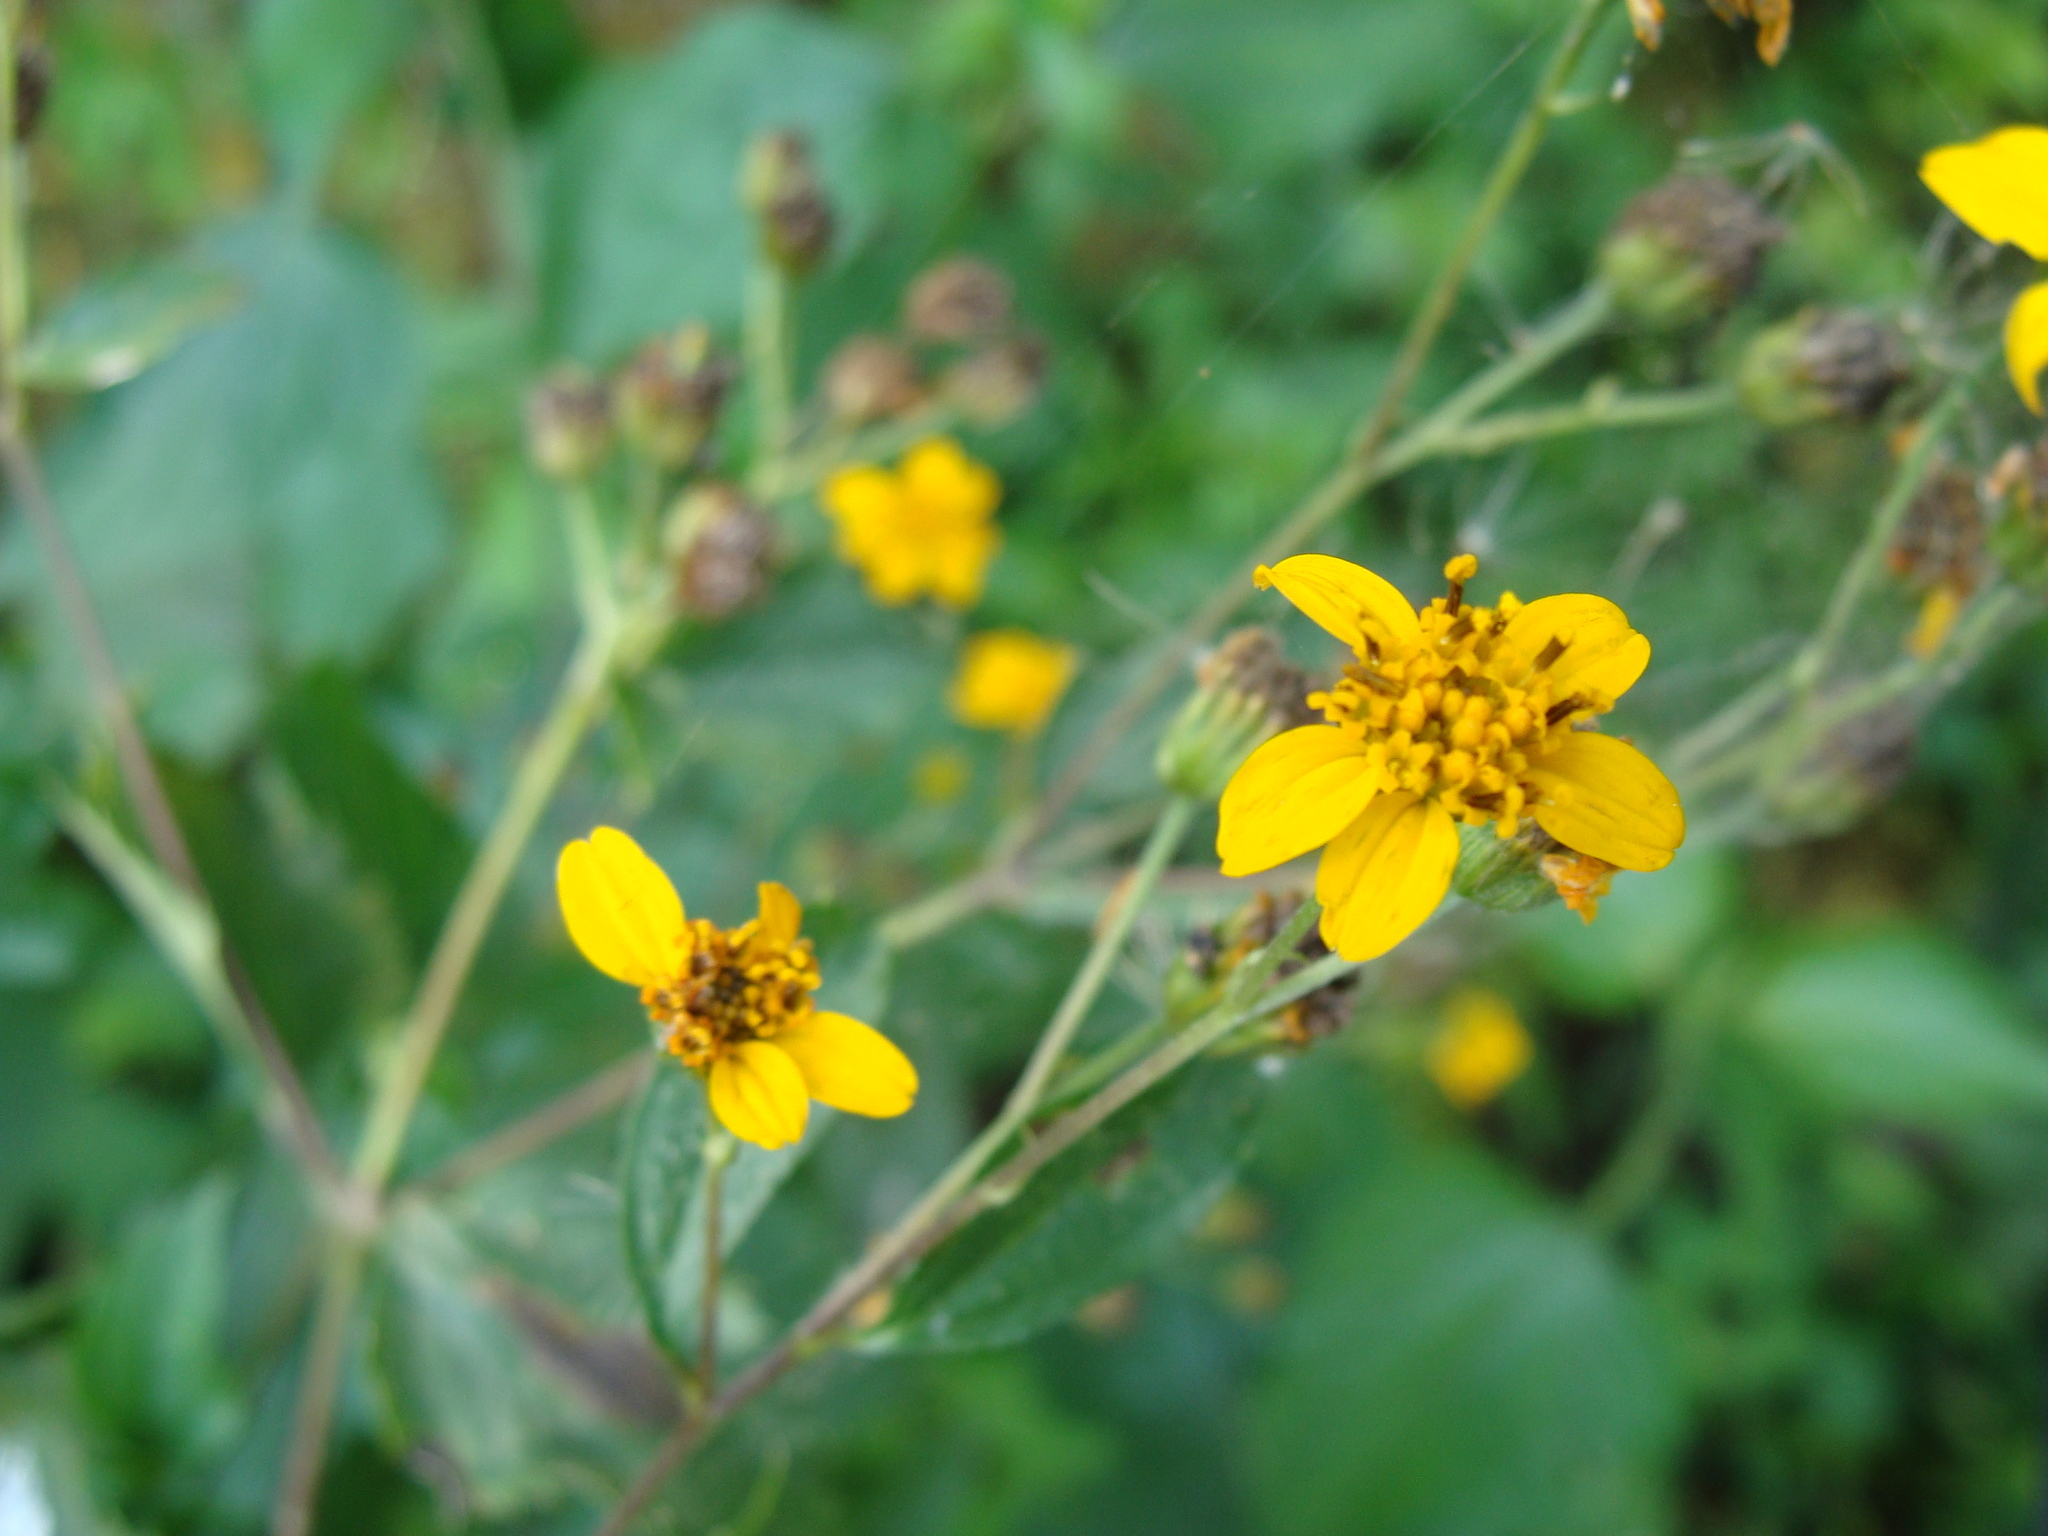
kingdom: Plantae
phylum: Tracheophyta
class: Magnoliopsida
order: Asterales
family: Asteraceae
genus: Hymenostephium
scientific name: Hymenostephium cordatum
